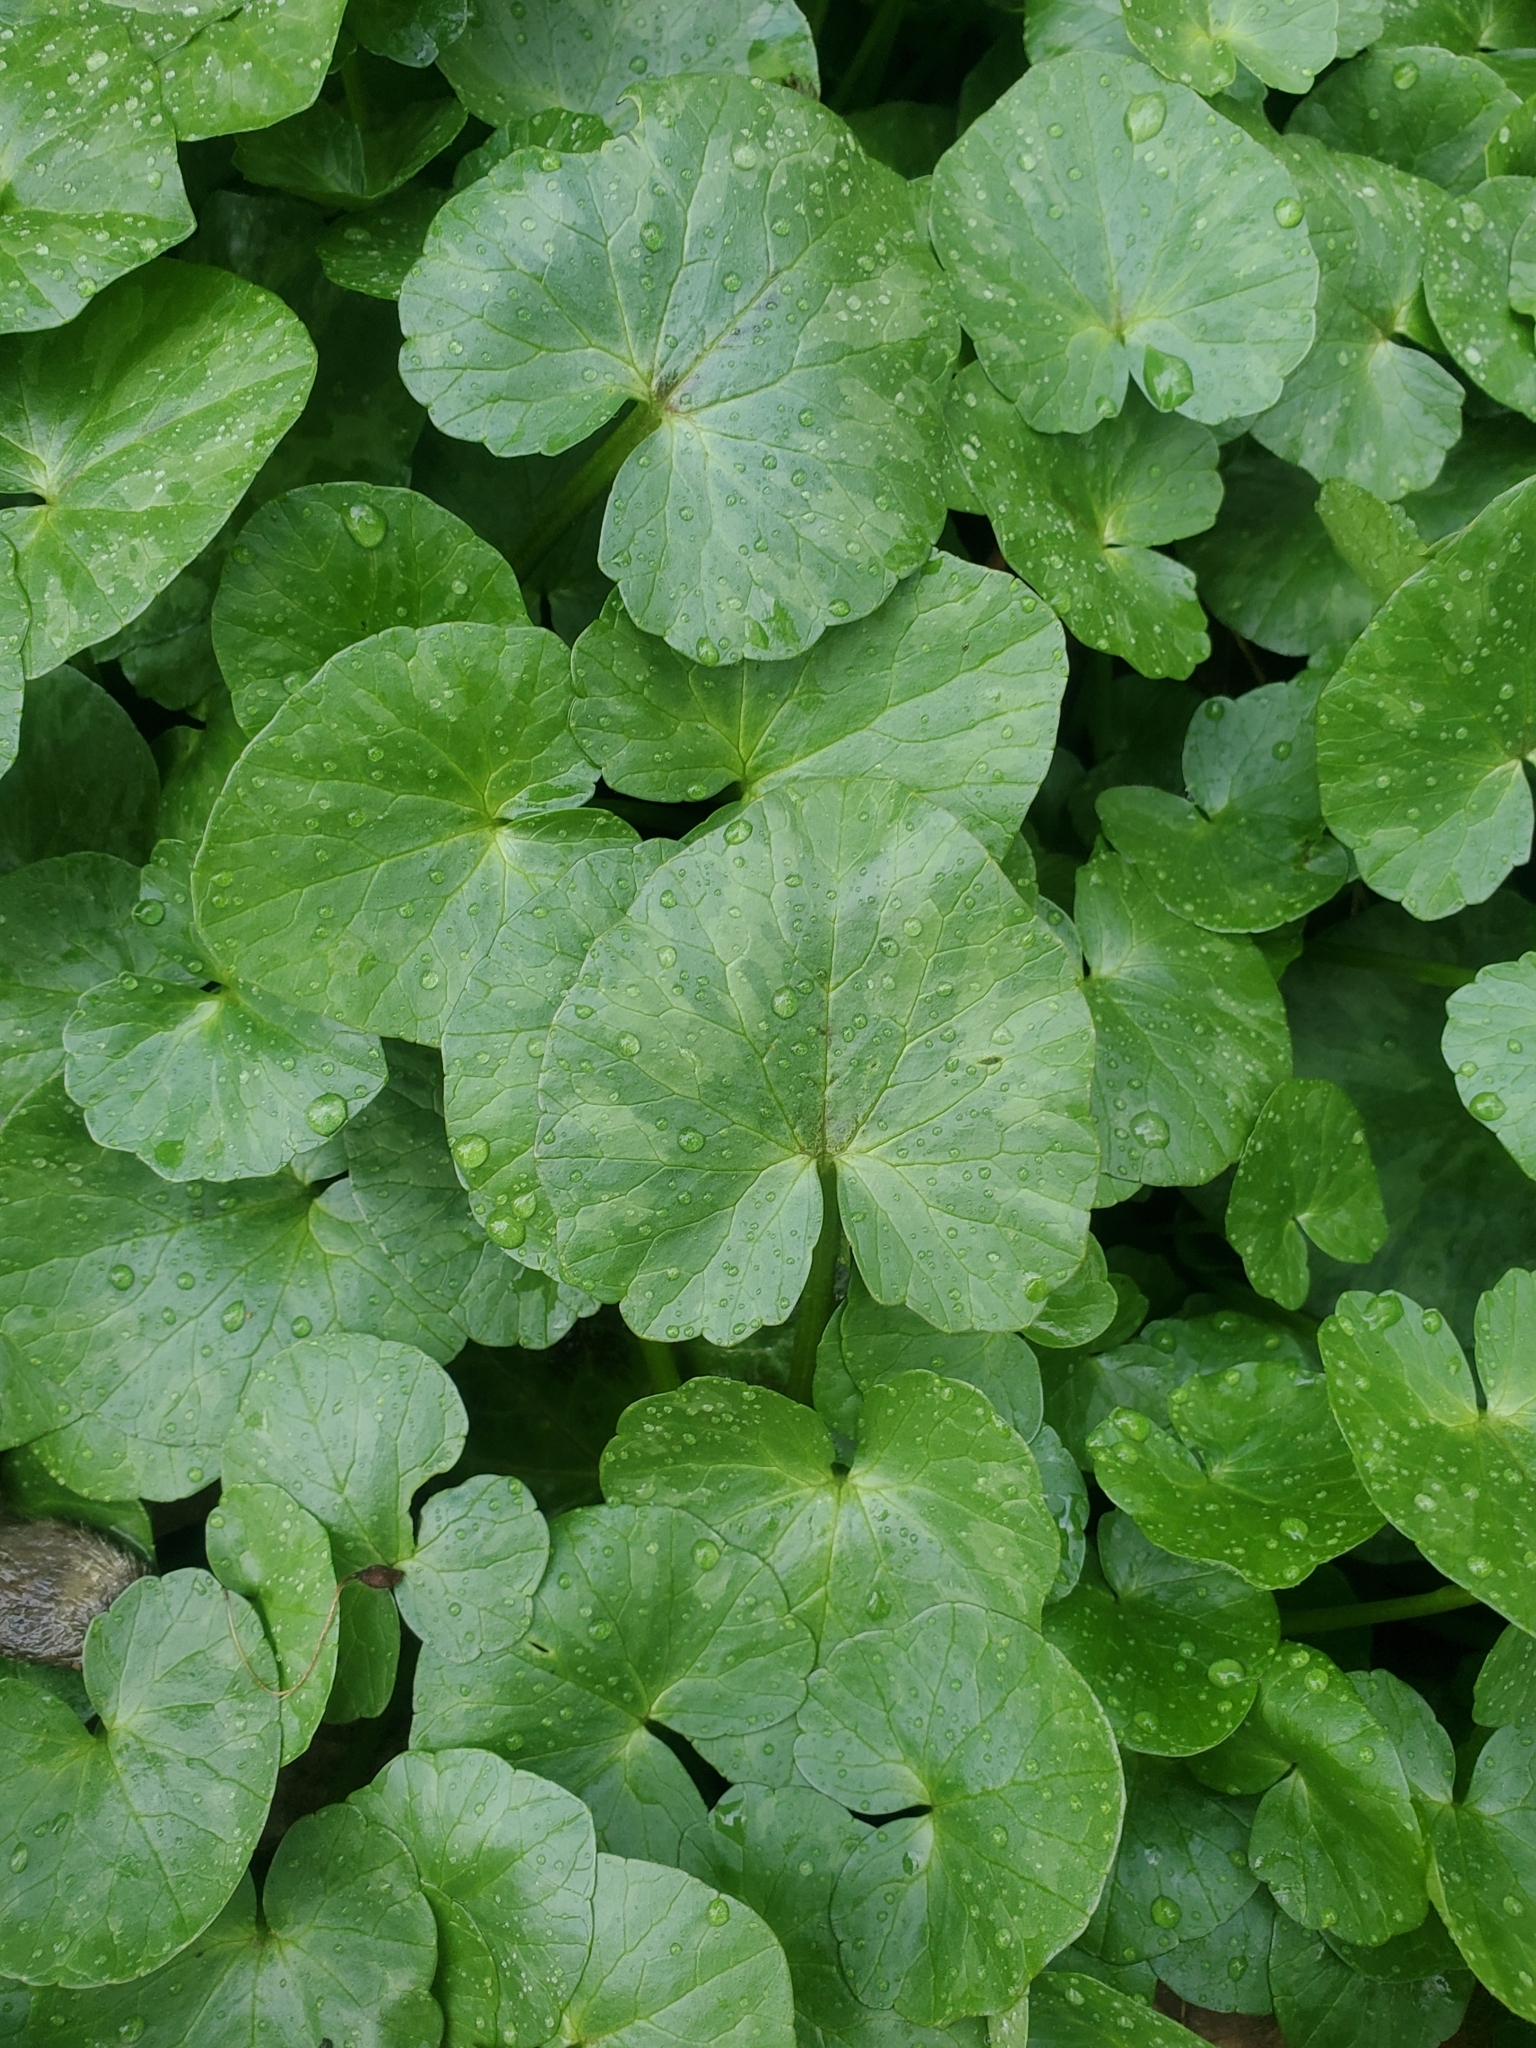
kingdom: Plantae
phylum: Tracheophyta
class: Magnoliopsida
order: Ranunculales
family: Ranunculaceae
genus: Ficaria
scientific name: Ficaria verna
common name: Lesser celandine
